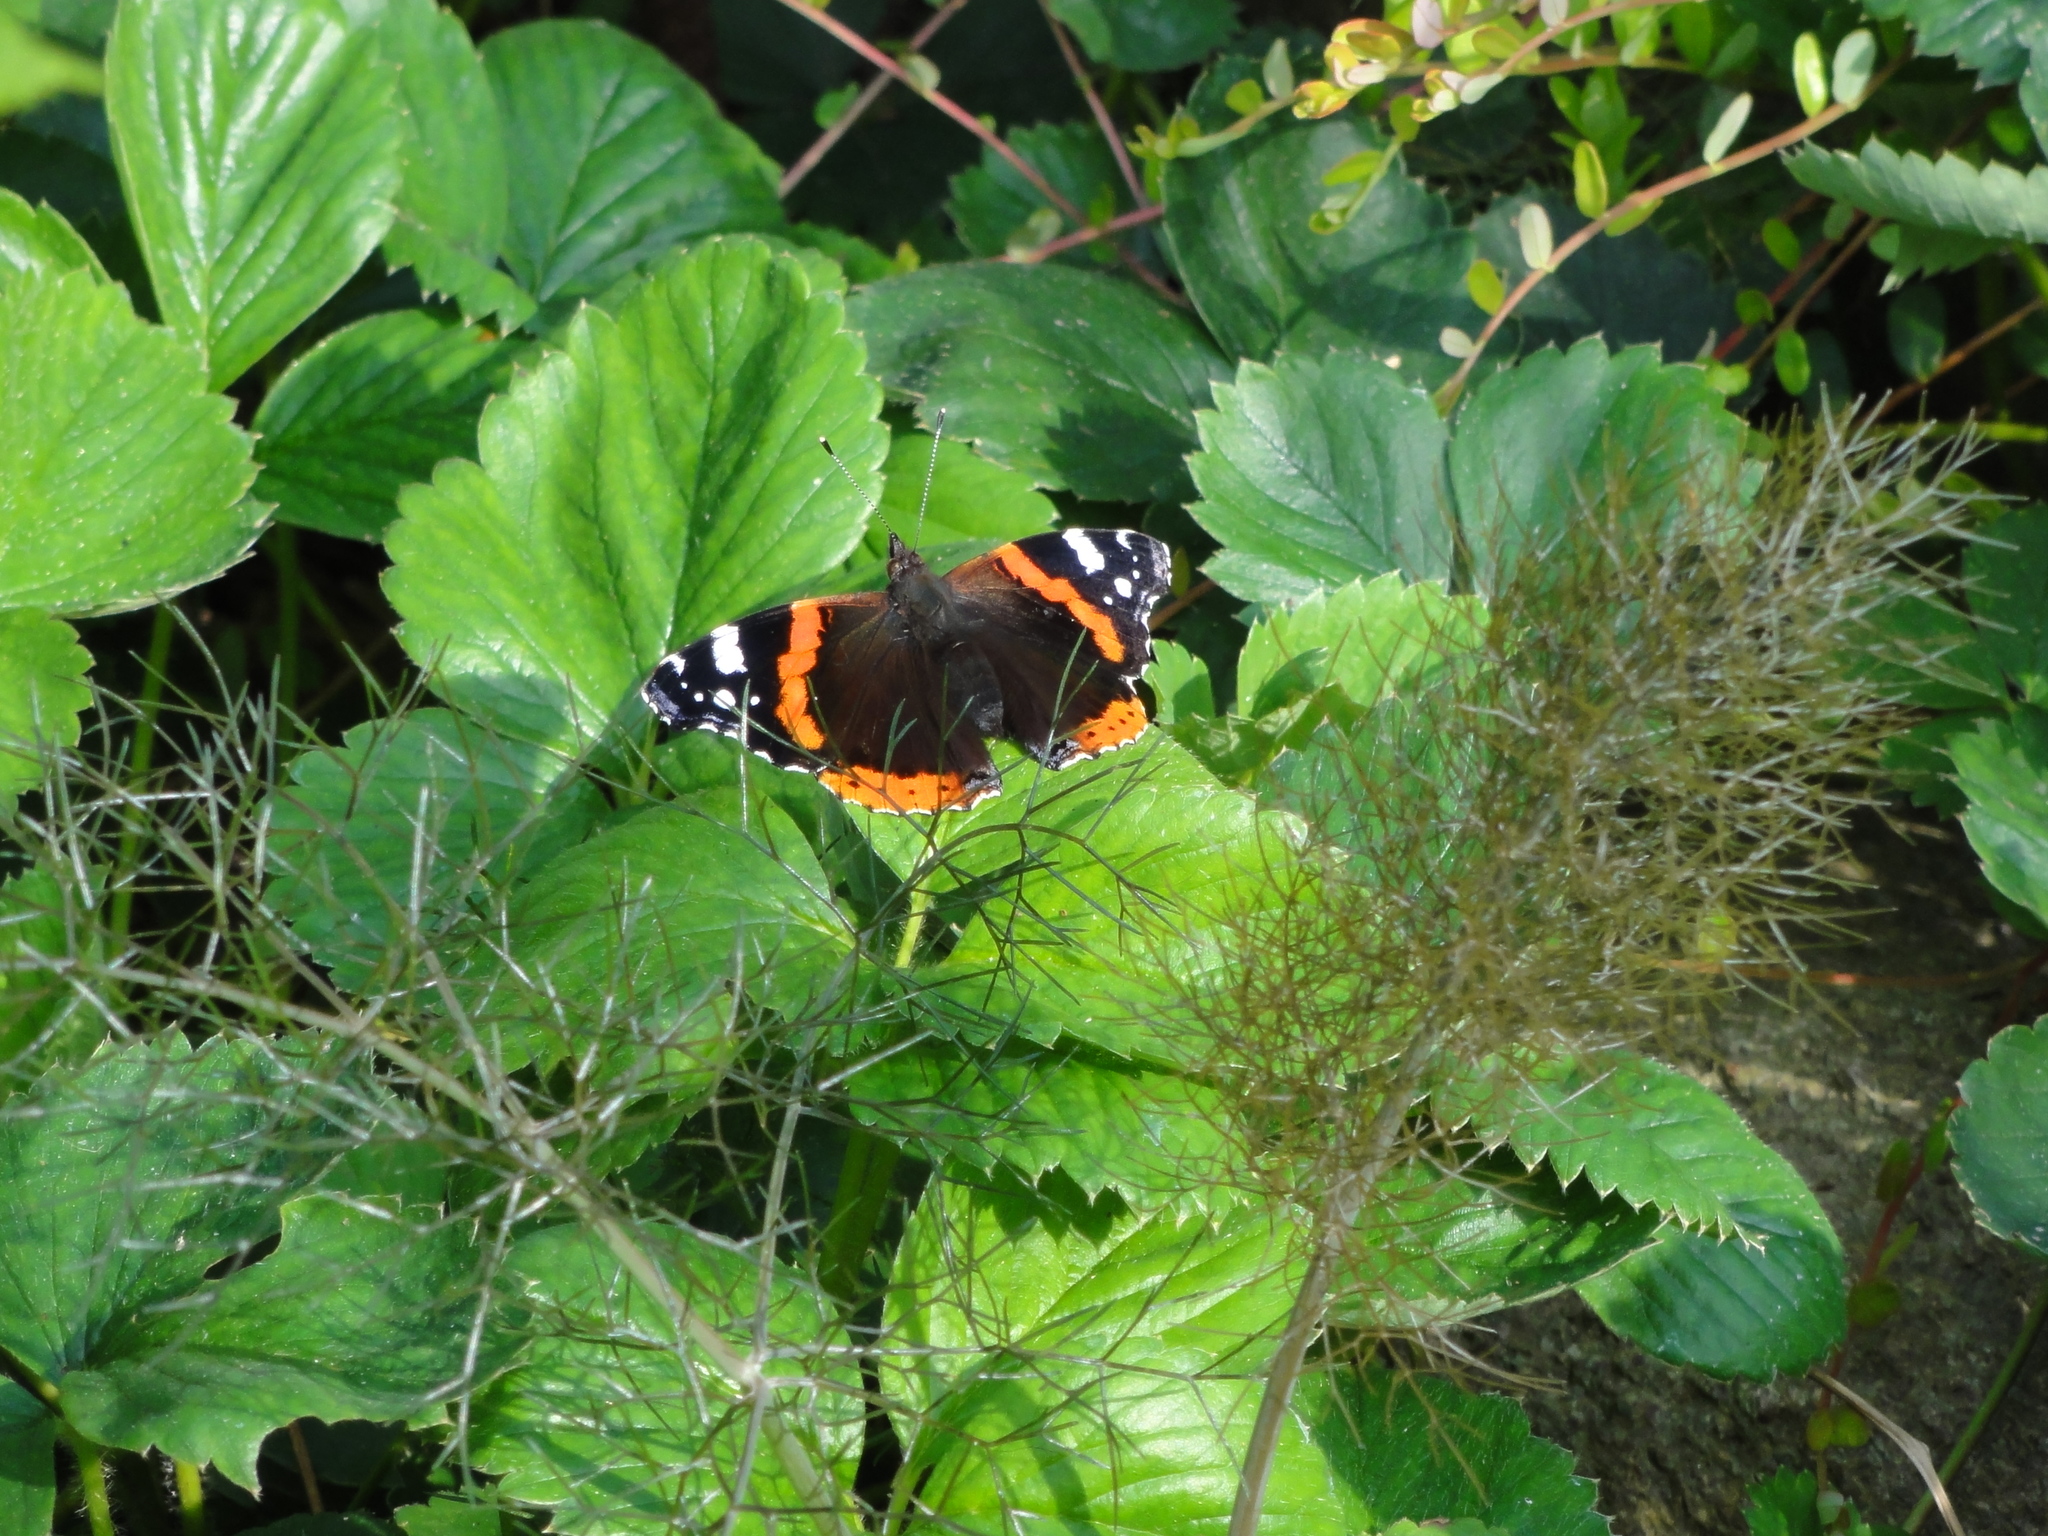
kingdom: Animalia
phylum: Arthropoda
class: Insecta
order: Lepidoptera
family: Nymphalidae
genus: Vanessa
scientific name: Vanessa atalanta
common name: Red admiral
